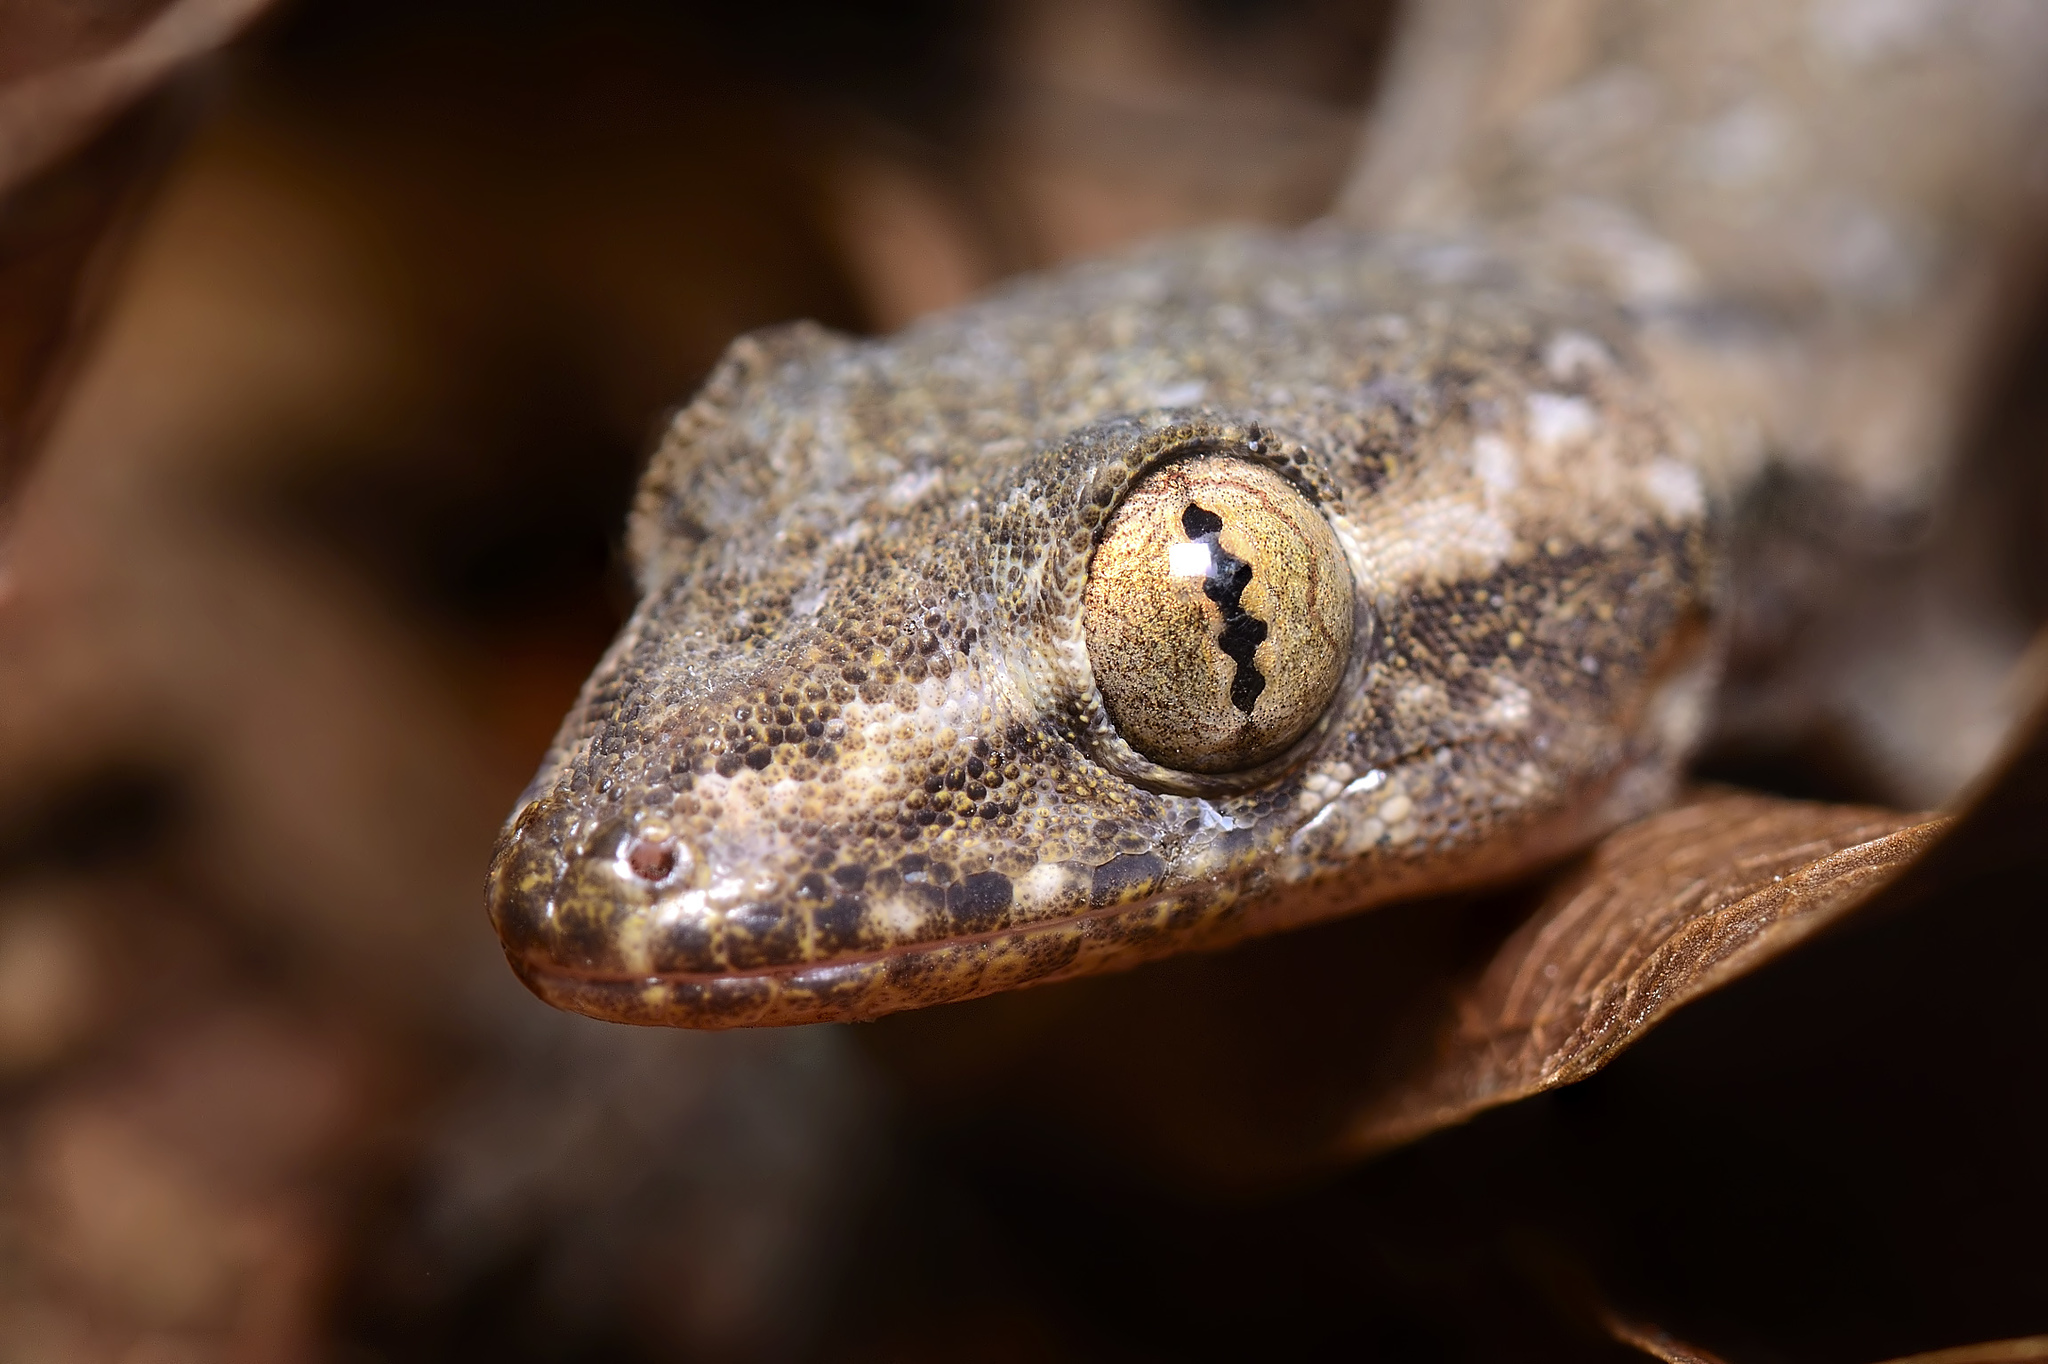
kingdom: Animalia
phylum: Chordata
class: Squamata
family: Gekkonidae
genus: Hemidactylus
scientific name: Hemidactylus frenatus
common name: Common house gecko
